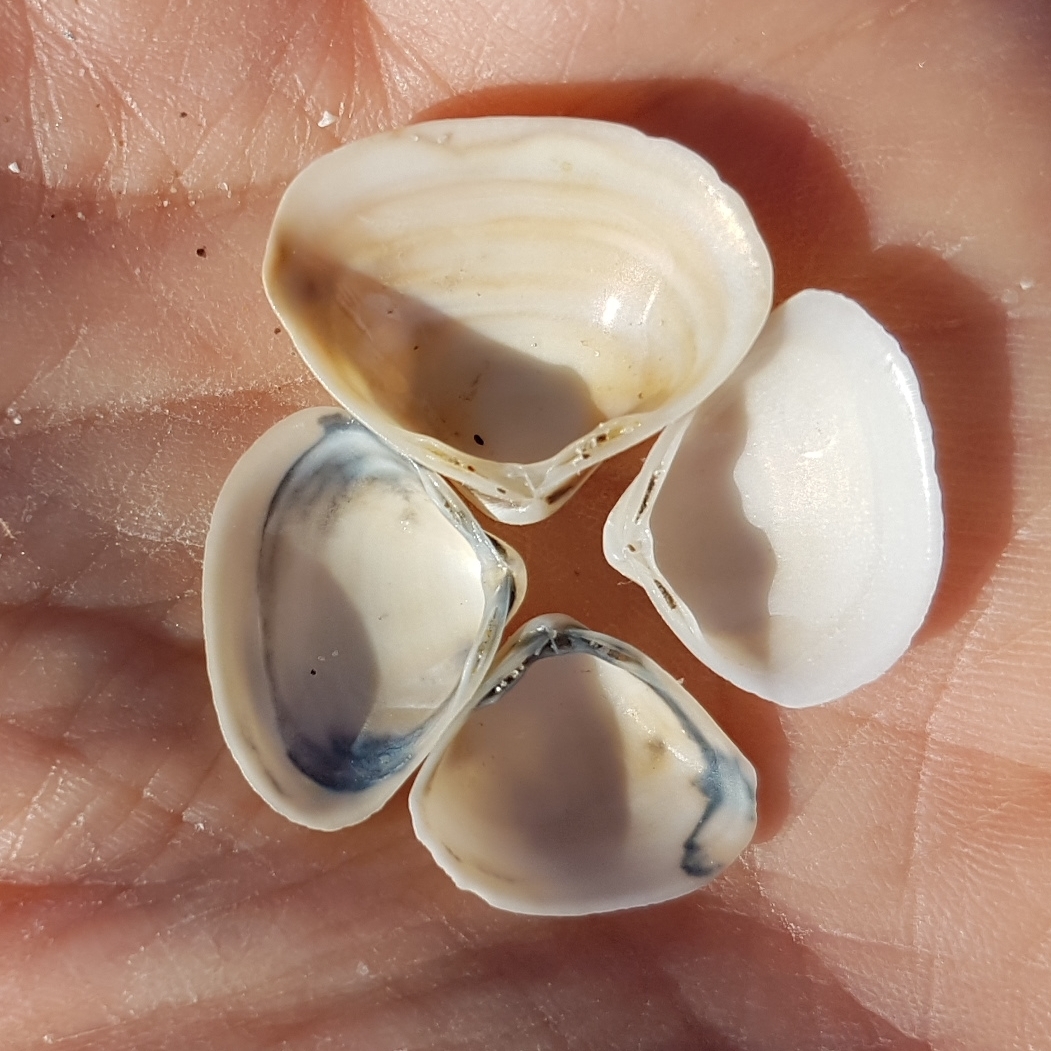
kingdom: Animalia
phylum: Mollusca
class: Bivalvia
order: Venerida
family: Mactridae
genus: Spisula
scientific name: Spisula subtruncata
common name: Cut trough shell
